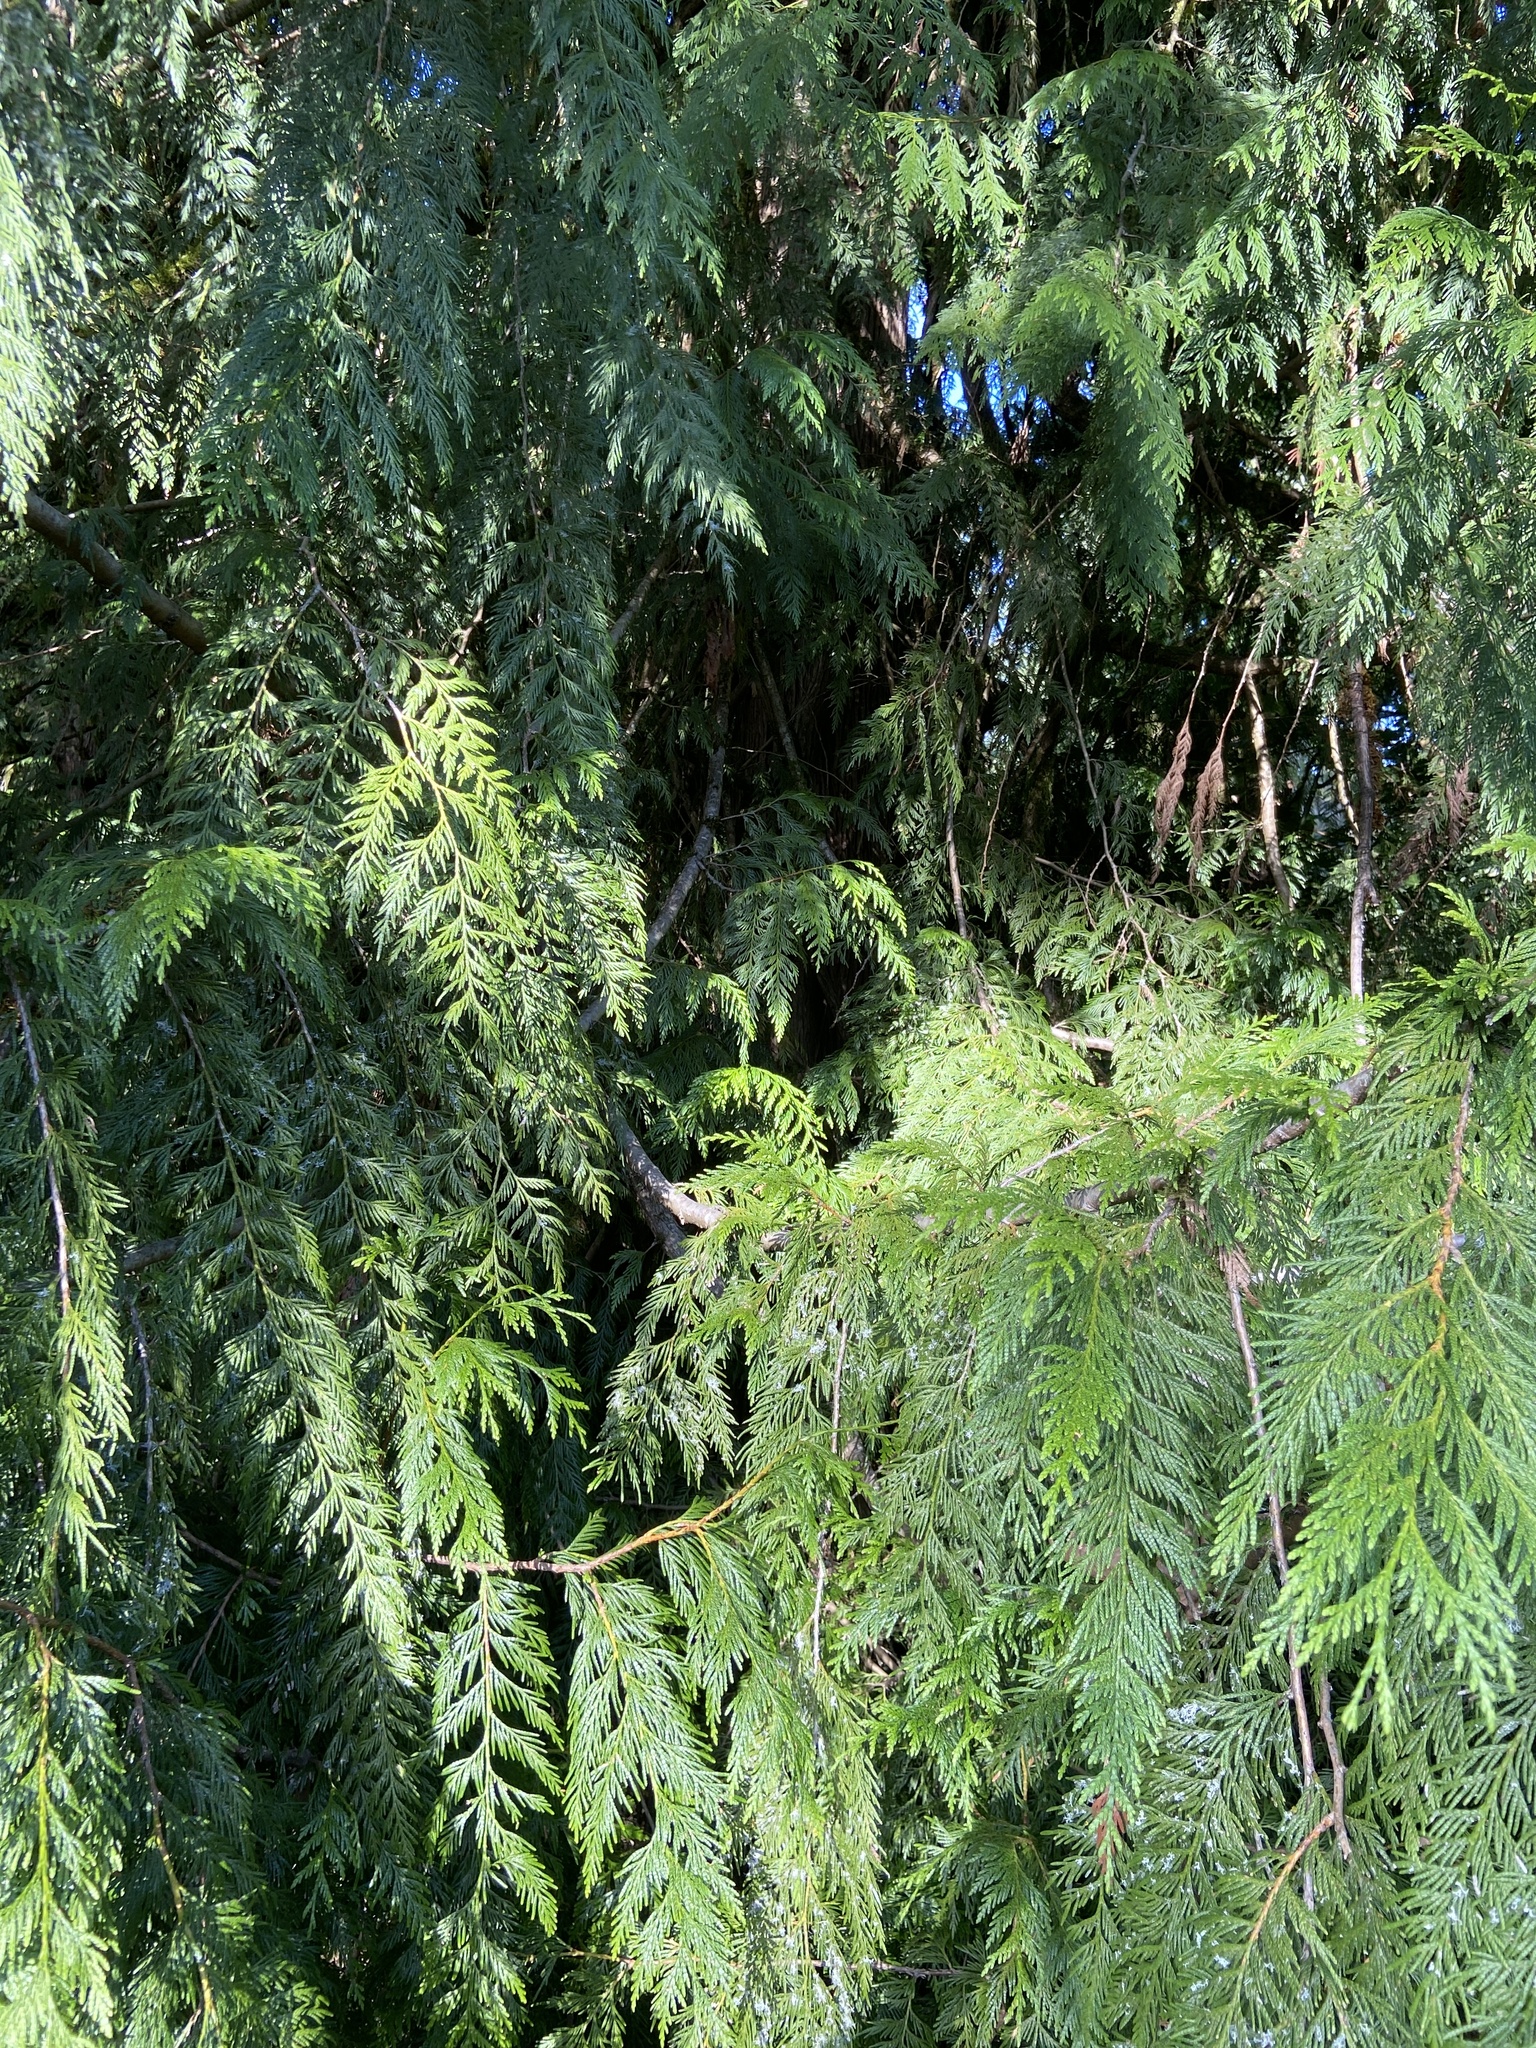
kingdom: Plantae
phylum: Tracheophyta
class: Pinopsida
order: Pinales
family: Cupressaceae
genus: Thuja
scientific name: Thuja plicata
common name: Western red-cedar
